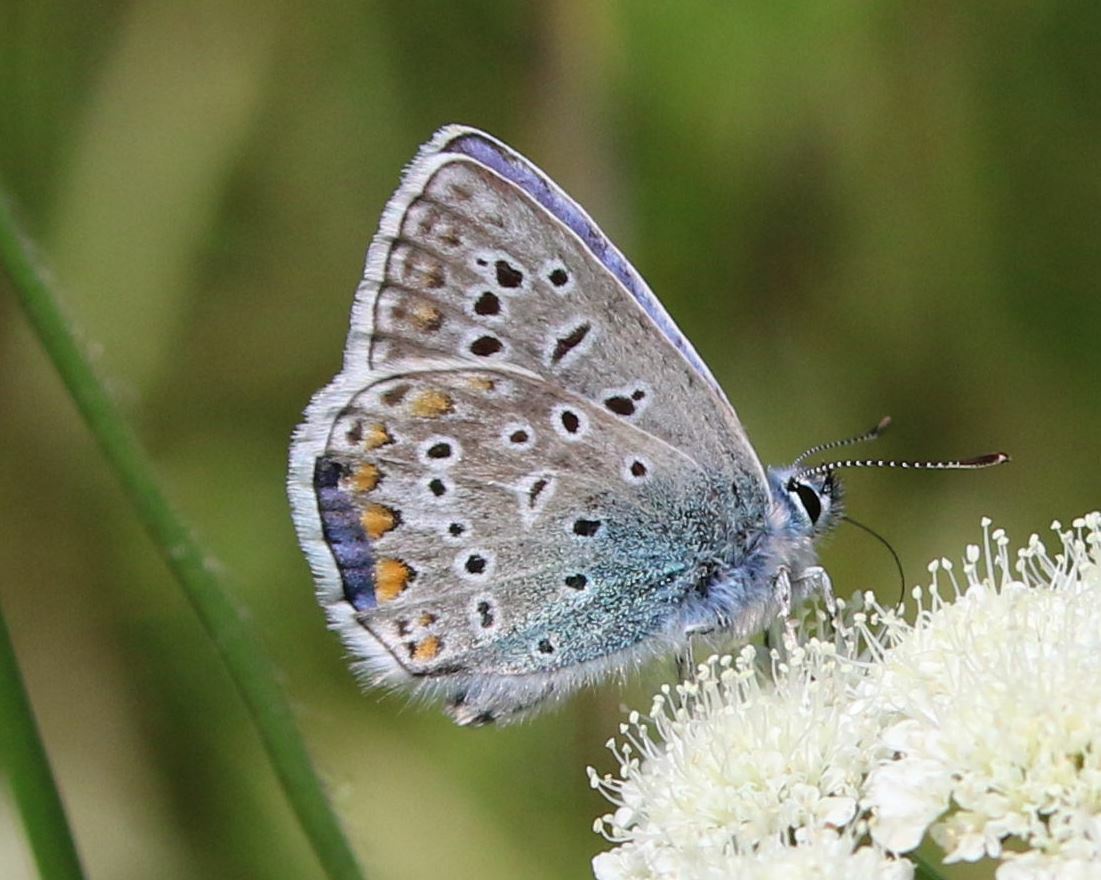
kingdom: Animalia
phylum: Arthropoda
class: Insecta
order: Lepidoptera
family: Lycaenidae
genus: Polyommatus
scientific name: Polyommatus icarus
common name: Common blue
